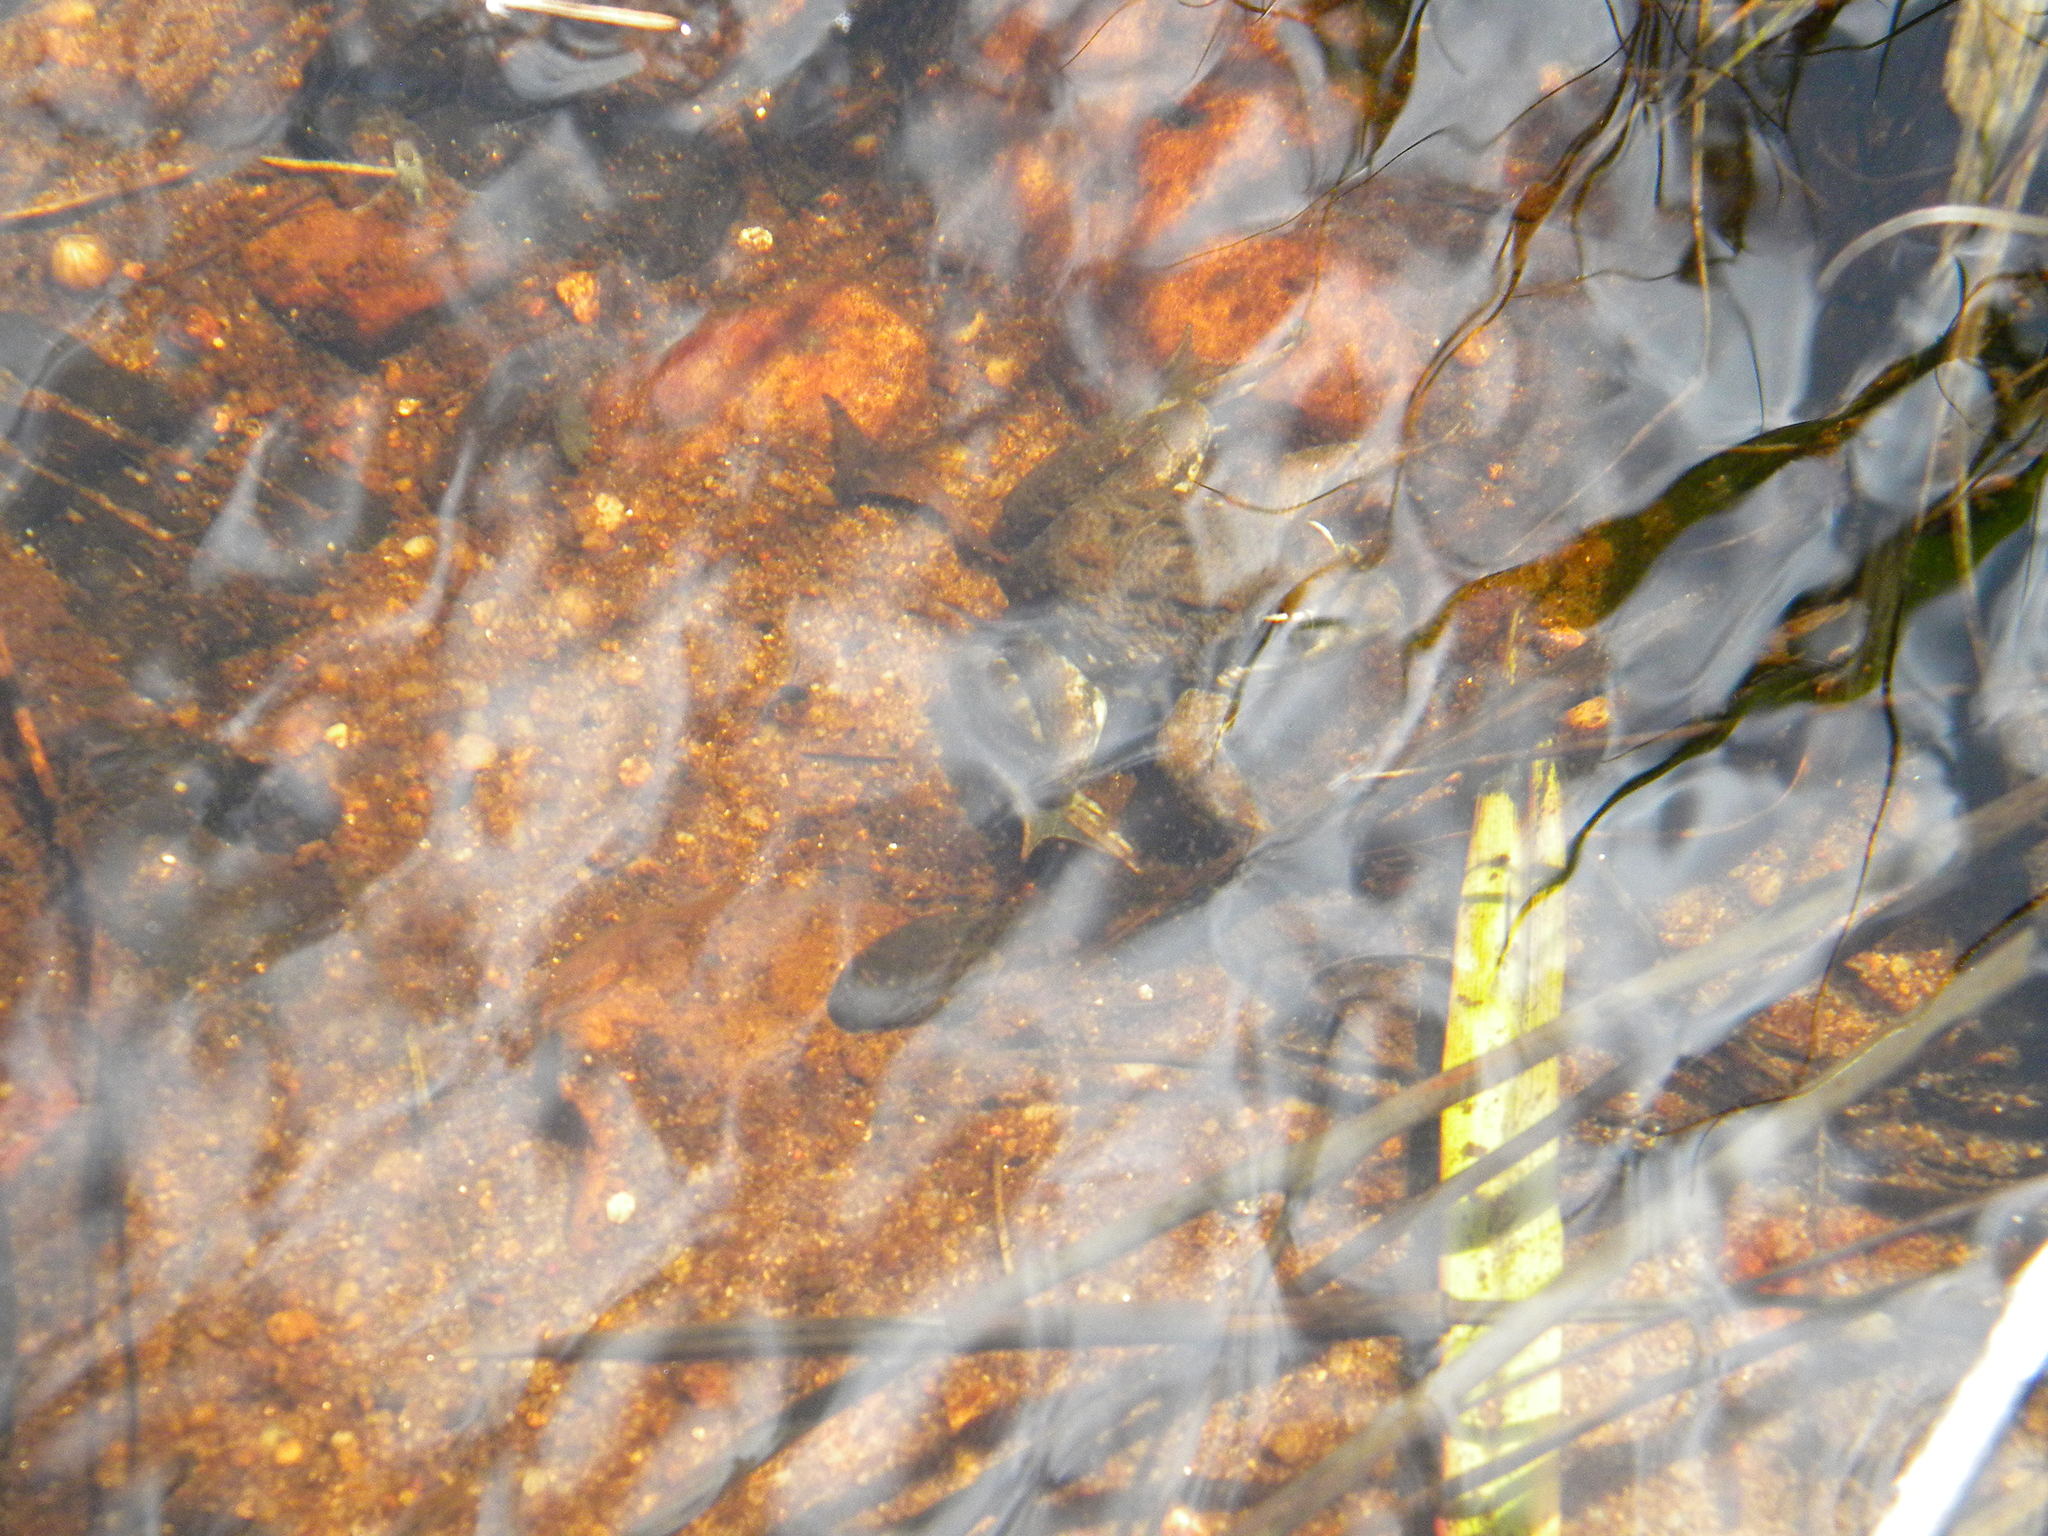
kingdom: Animalia
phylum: Chordata
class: Amphibia
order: Anura
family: Pyxicephalidae
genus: Amietia
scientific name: Amietia fuscigula
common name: Cape rana
